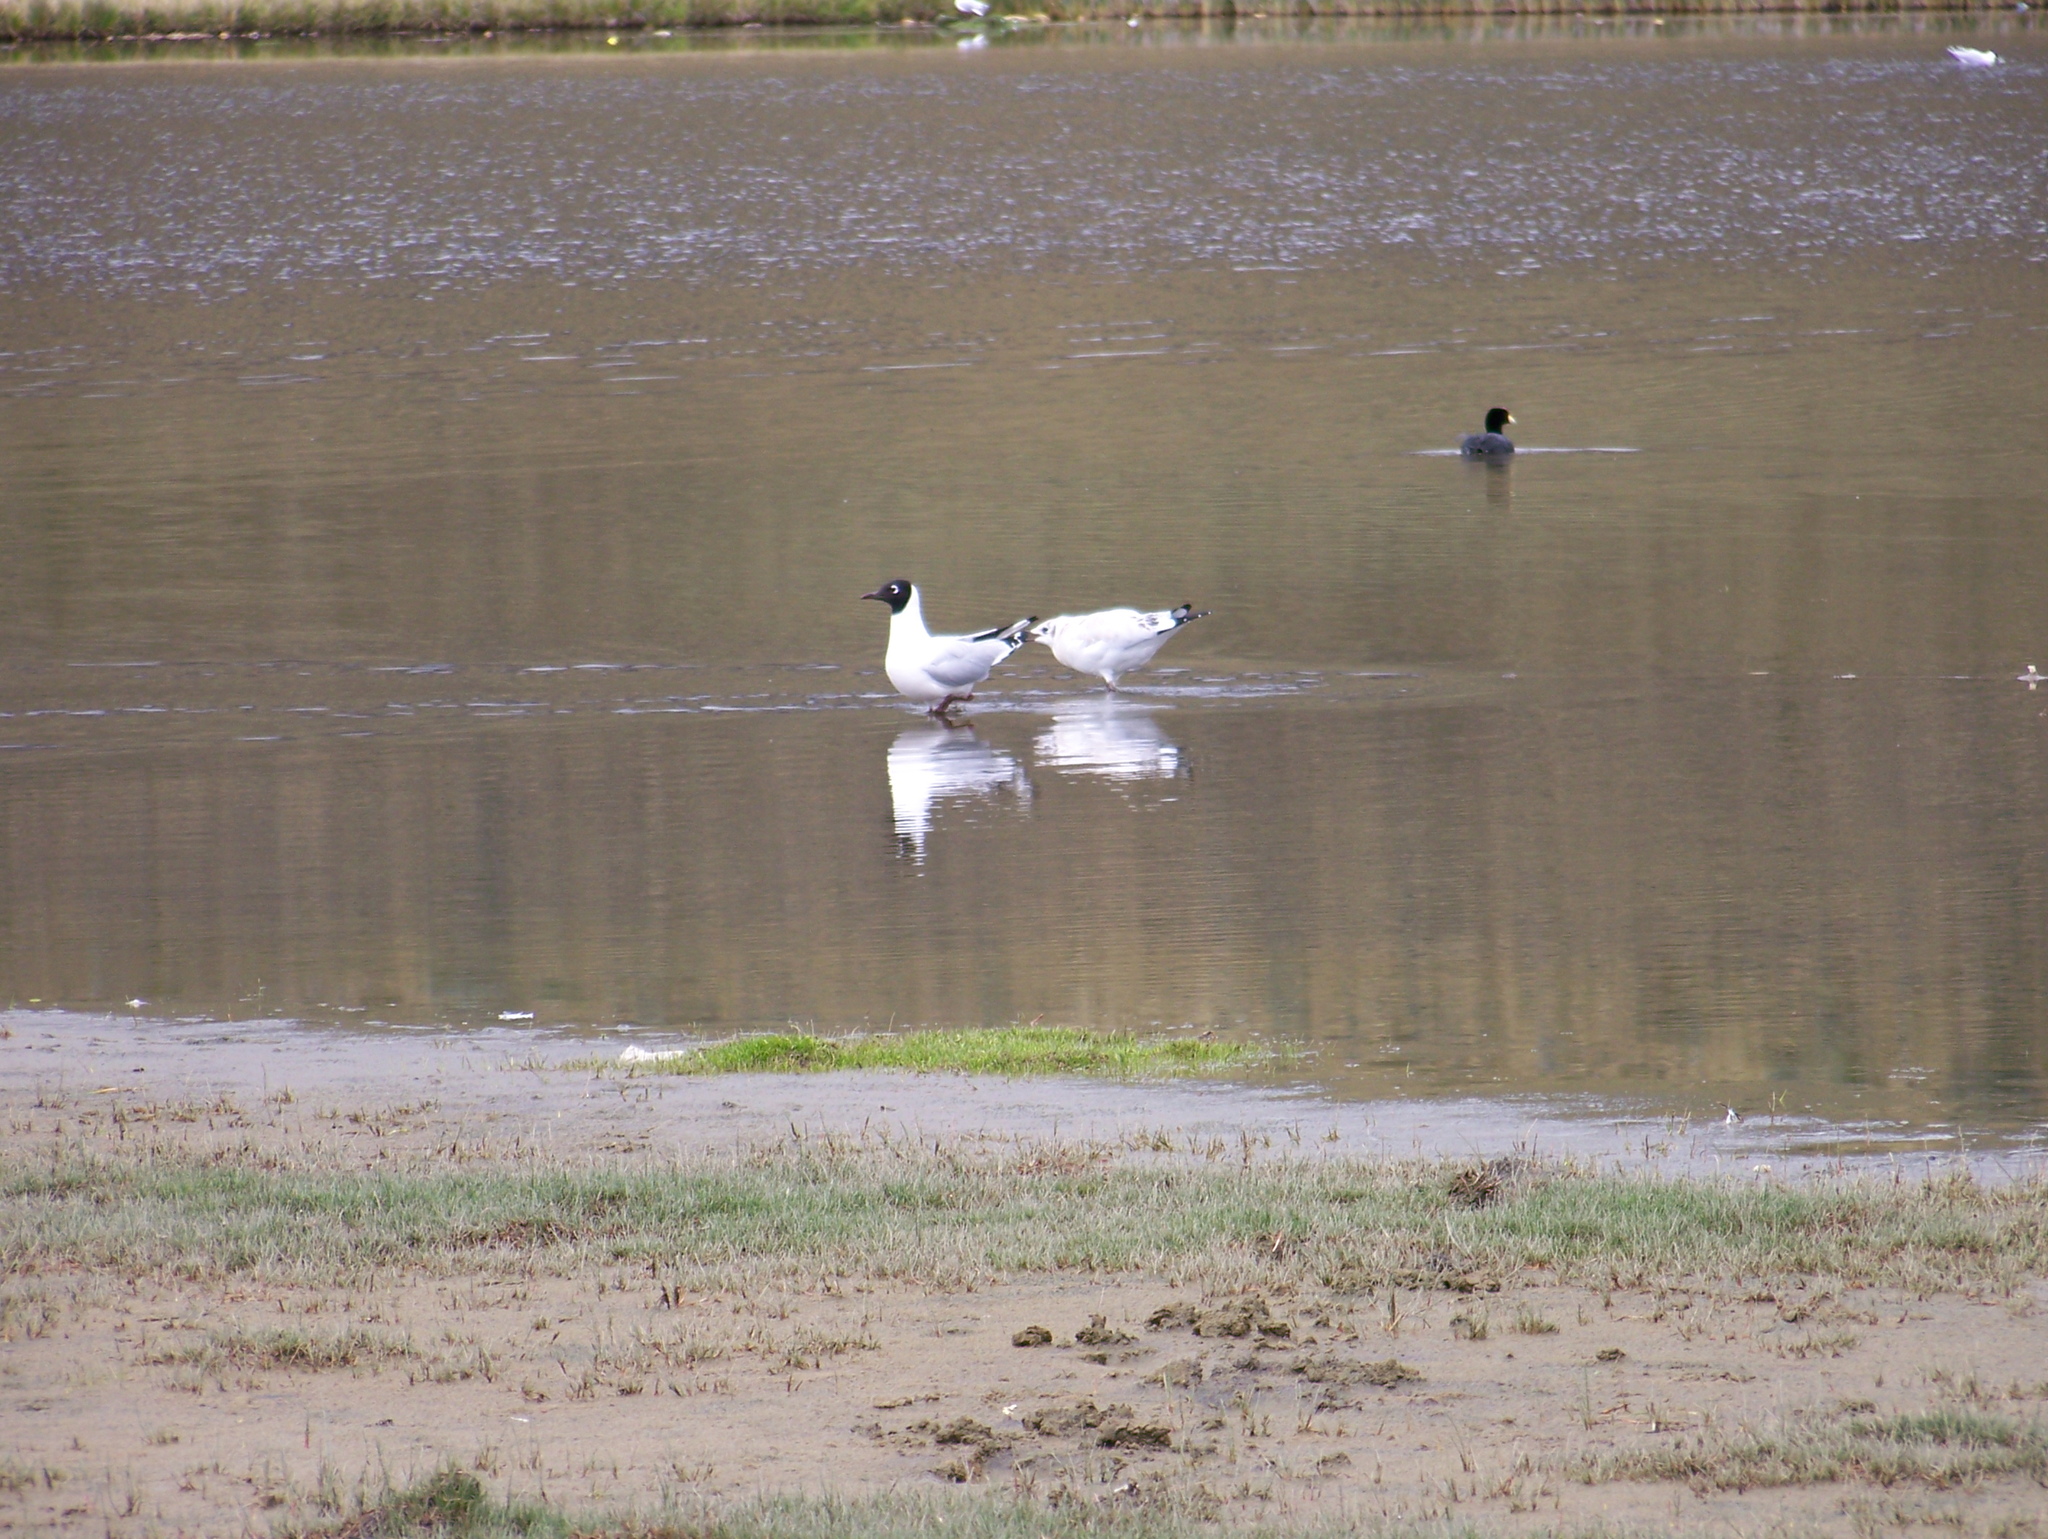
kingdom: Animalia
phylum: Chordata
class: Aves
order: Charadriiformes
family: Laridae
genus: Chroicocephalus
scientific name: Chroicocephalus serranus
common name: Andean gull
